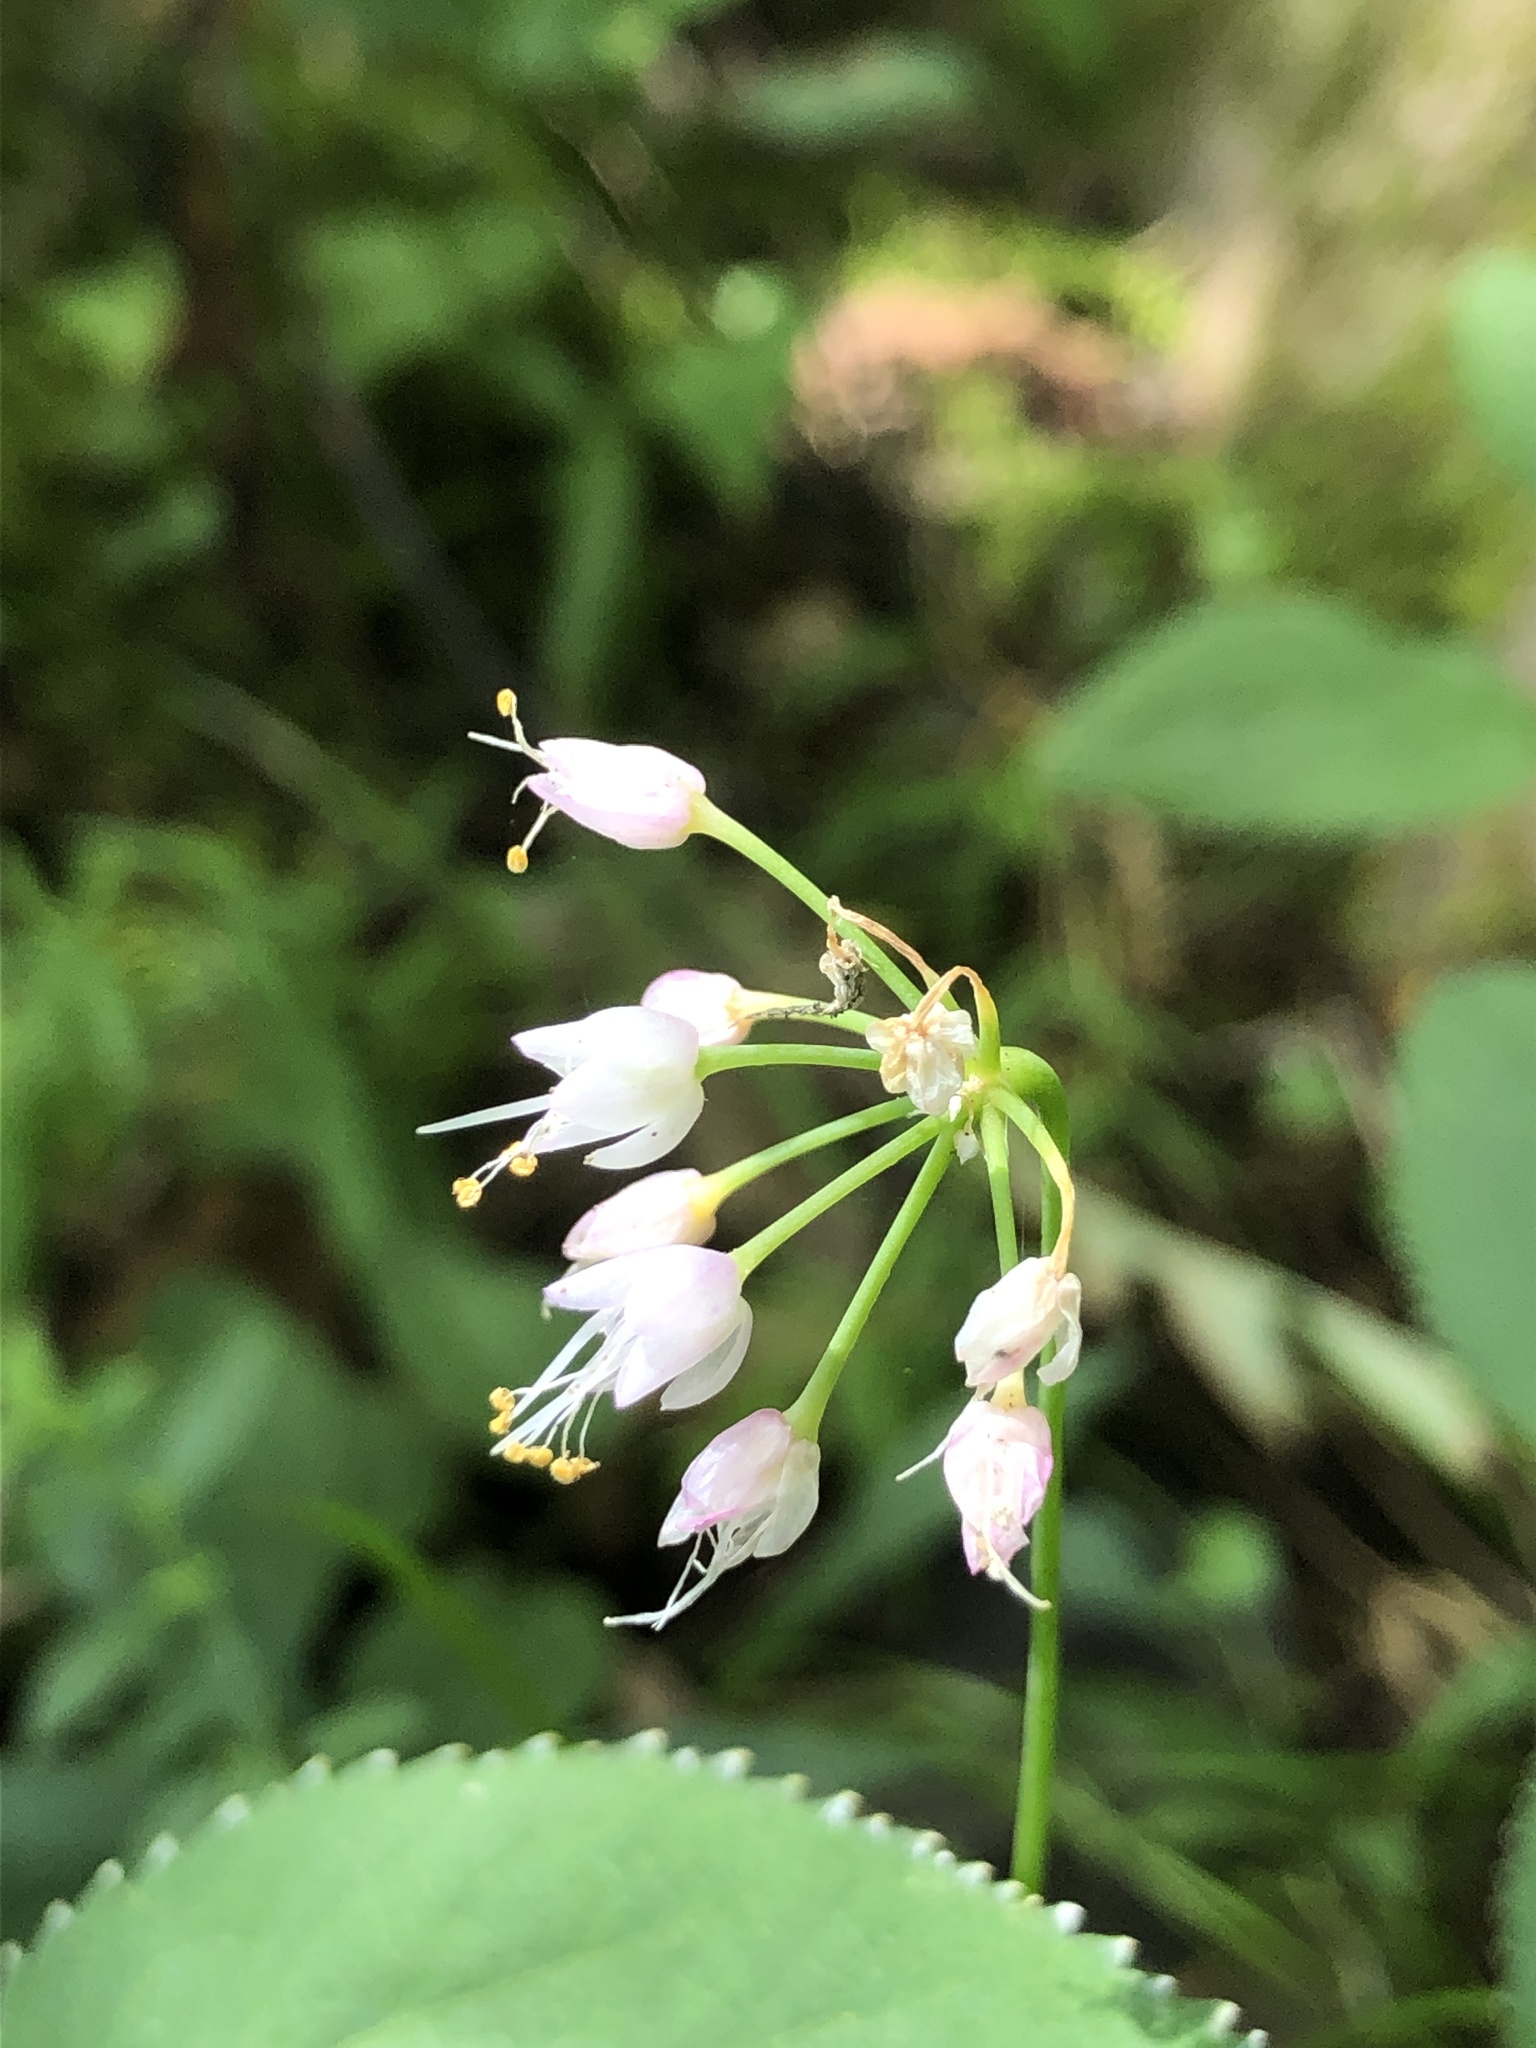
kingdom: Plantae
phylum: Tracheophyta
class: Liliopsida
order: Asparagales
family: Amaryllidaceae
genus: Allium
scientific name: Allium cernuum
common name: Nodding onion
